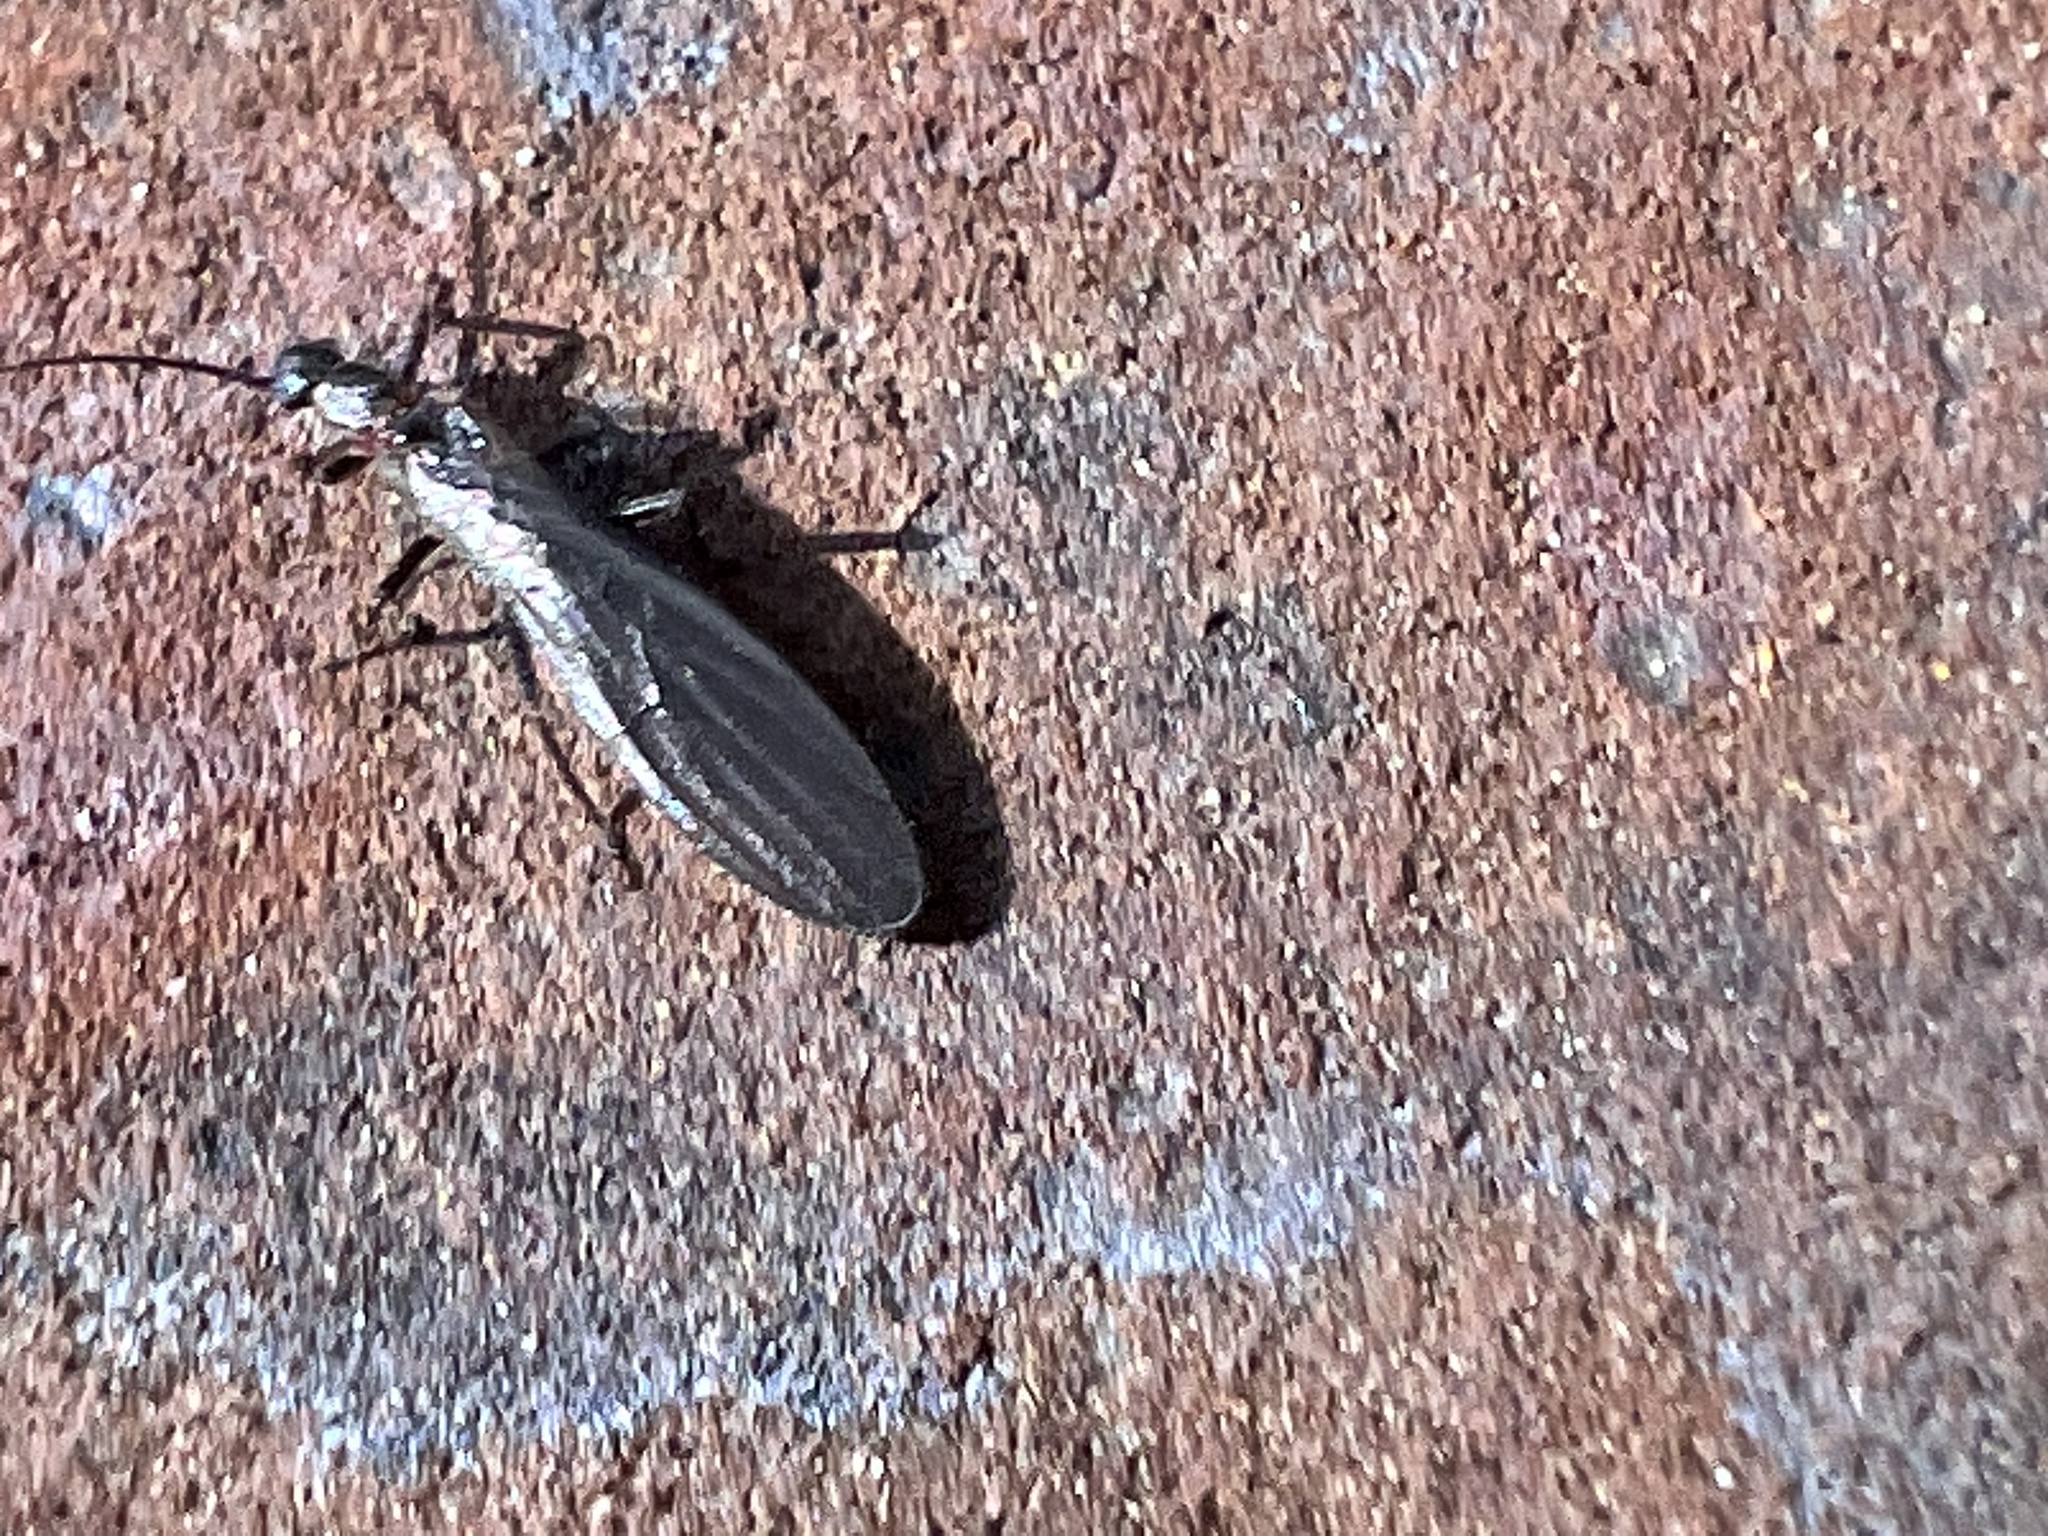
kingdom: Animalia
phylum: Arthropoda
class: Insecta
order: Plecoptera
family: Capniidae
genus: Eucapnopsis
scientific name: Eucapnopsis brevicauda
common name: Shortailed snowfly
